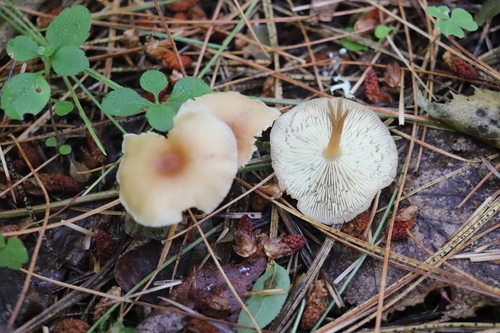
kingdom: Fungi
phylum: Basidiomycota
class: Agaricomycetes
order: Agaricales
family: Omphalotaceae
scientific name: Omphalotaceae
